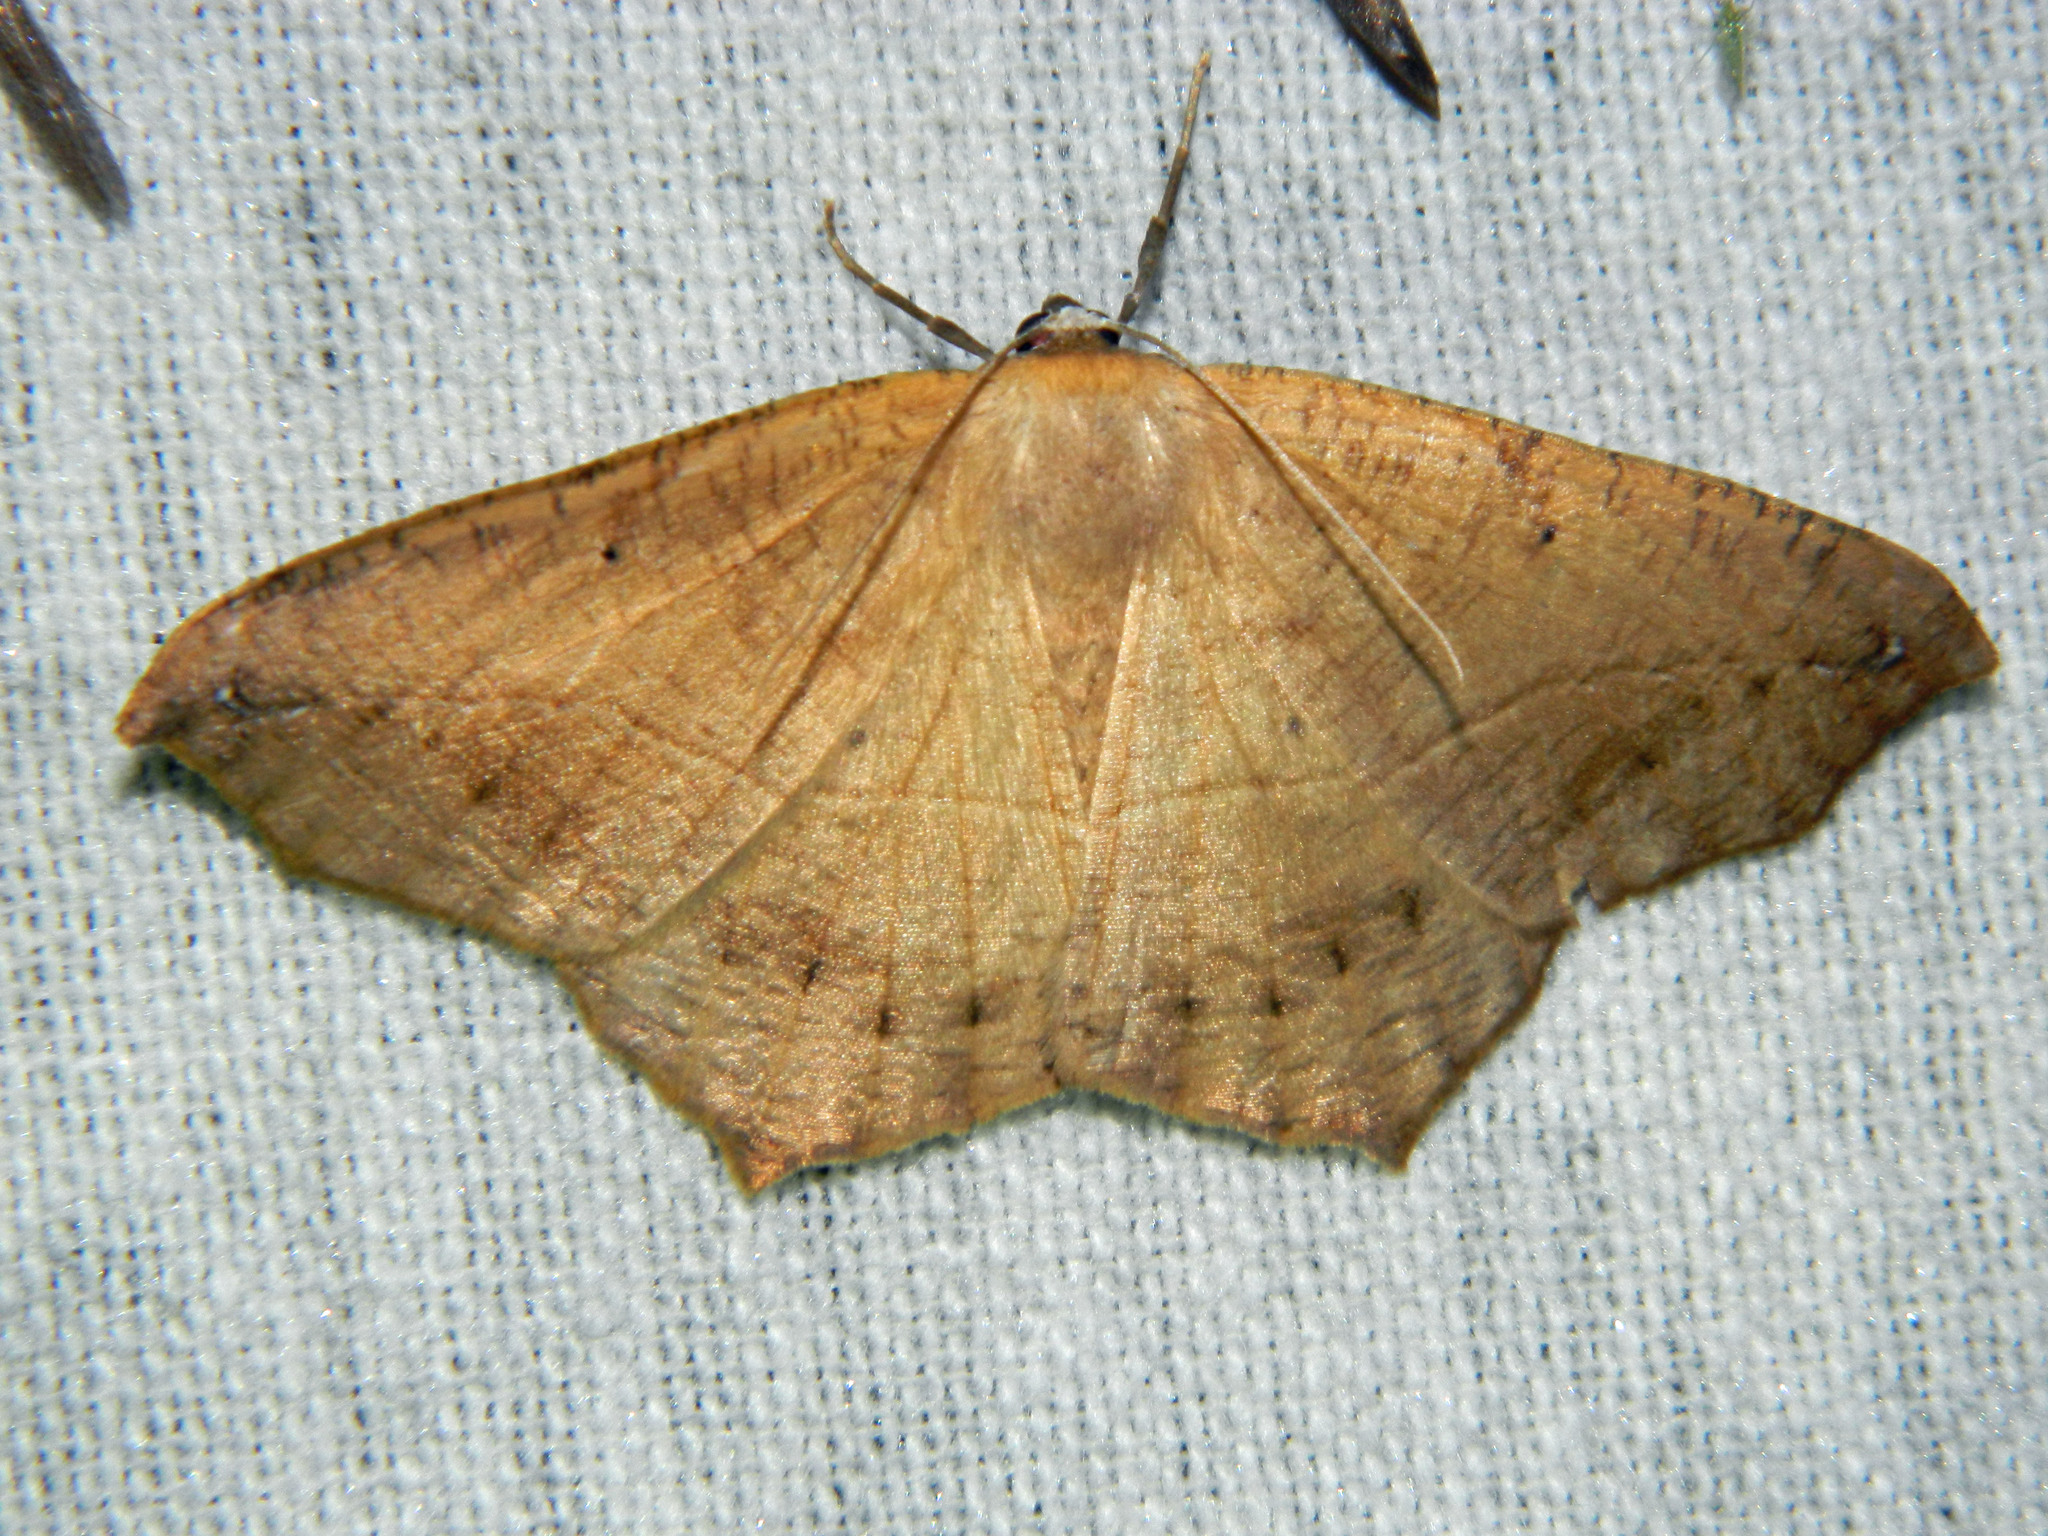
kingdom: Animalia
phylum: Arthropoda
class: Insecta
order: Lepidoptera
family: Geometridae
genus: Prochoerodes
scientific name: Prochoerodes lineola
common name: Large maple spanworm
